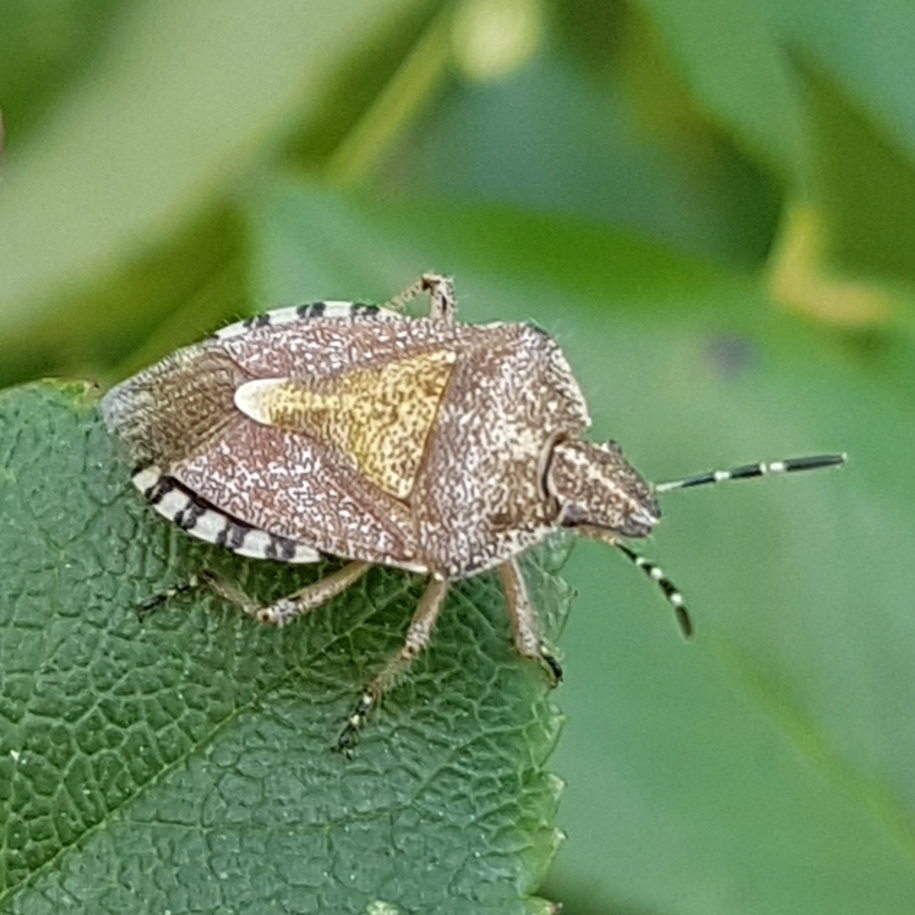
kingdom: Animalia
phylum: Arthropoda
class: Insecta
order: Hemiptera
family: Pentatomidae
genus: Dolycoris
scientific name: Dolycoris baccarum
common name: Sloe bug
